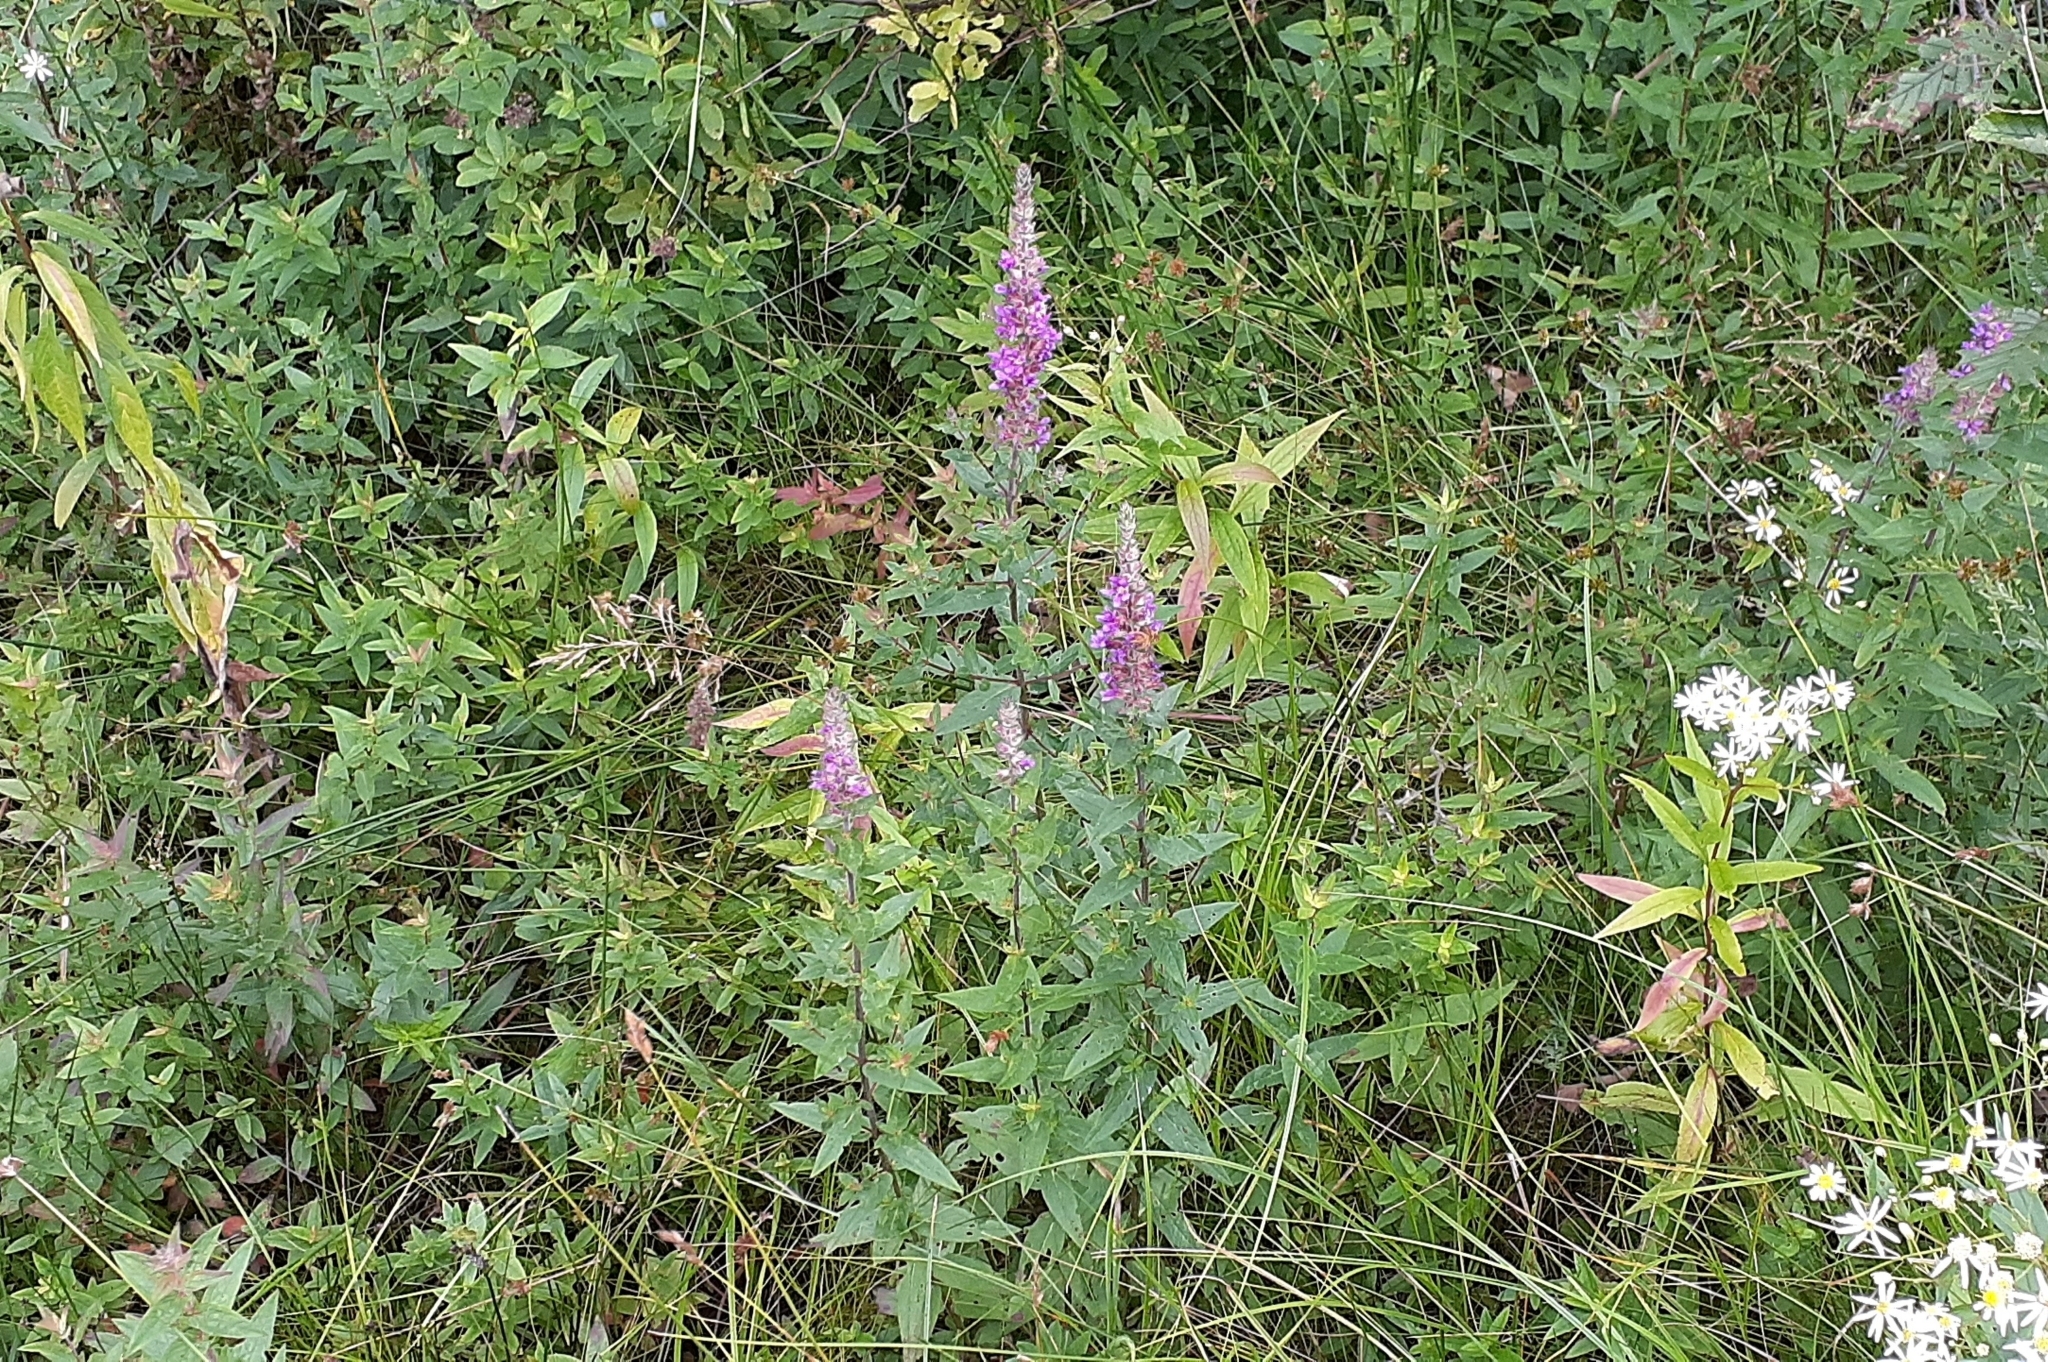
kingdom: Plantae
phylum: Tracheophyta
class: Magnoliopsida
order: Myrtales
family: Lythraceae
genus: Lythrum
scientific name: Lythrum salicaria
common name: Purple loosestrife
